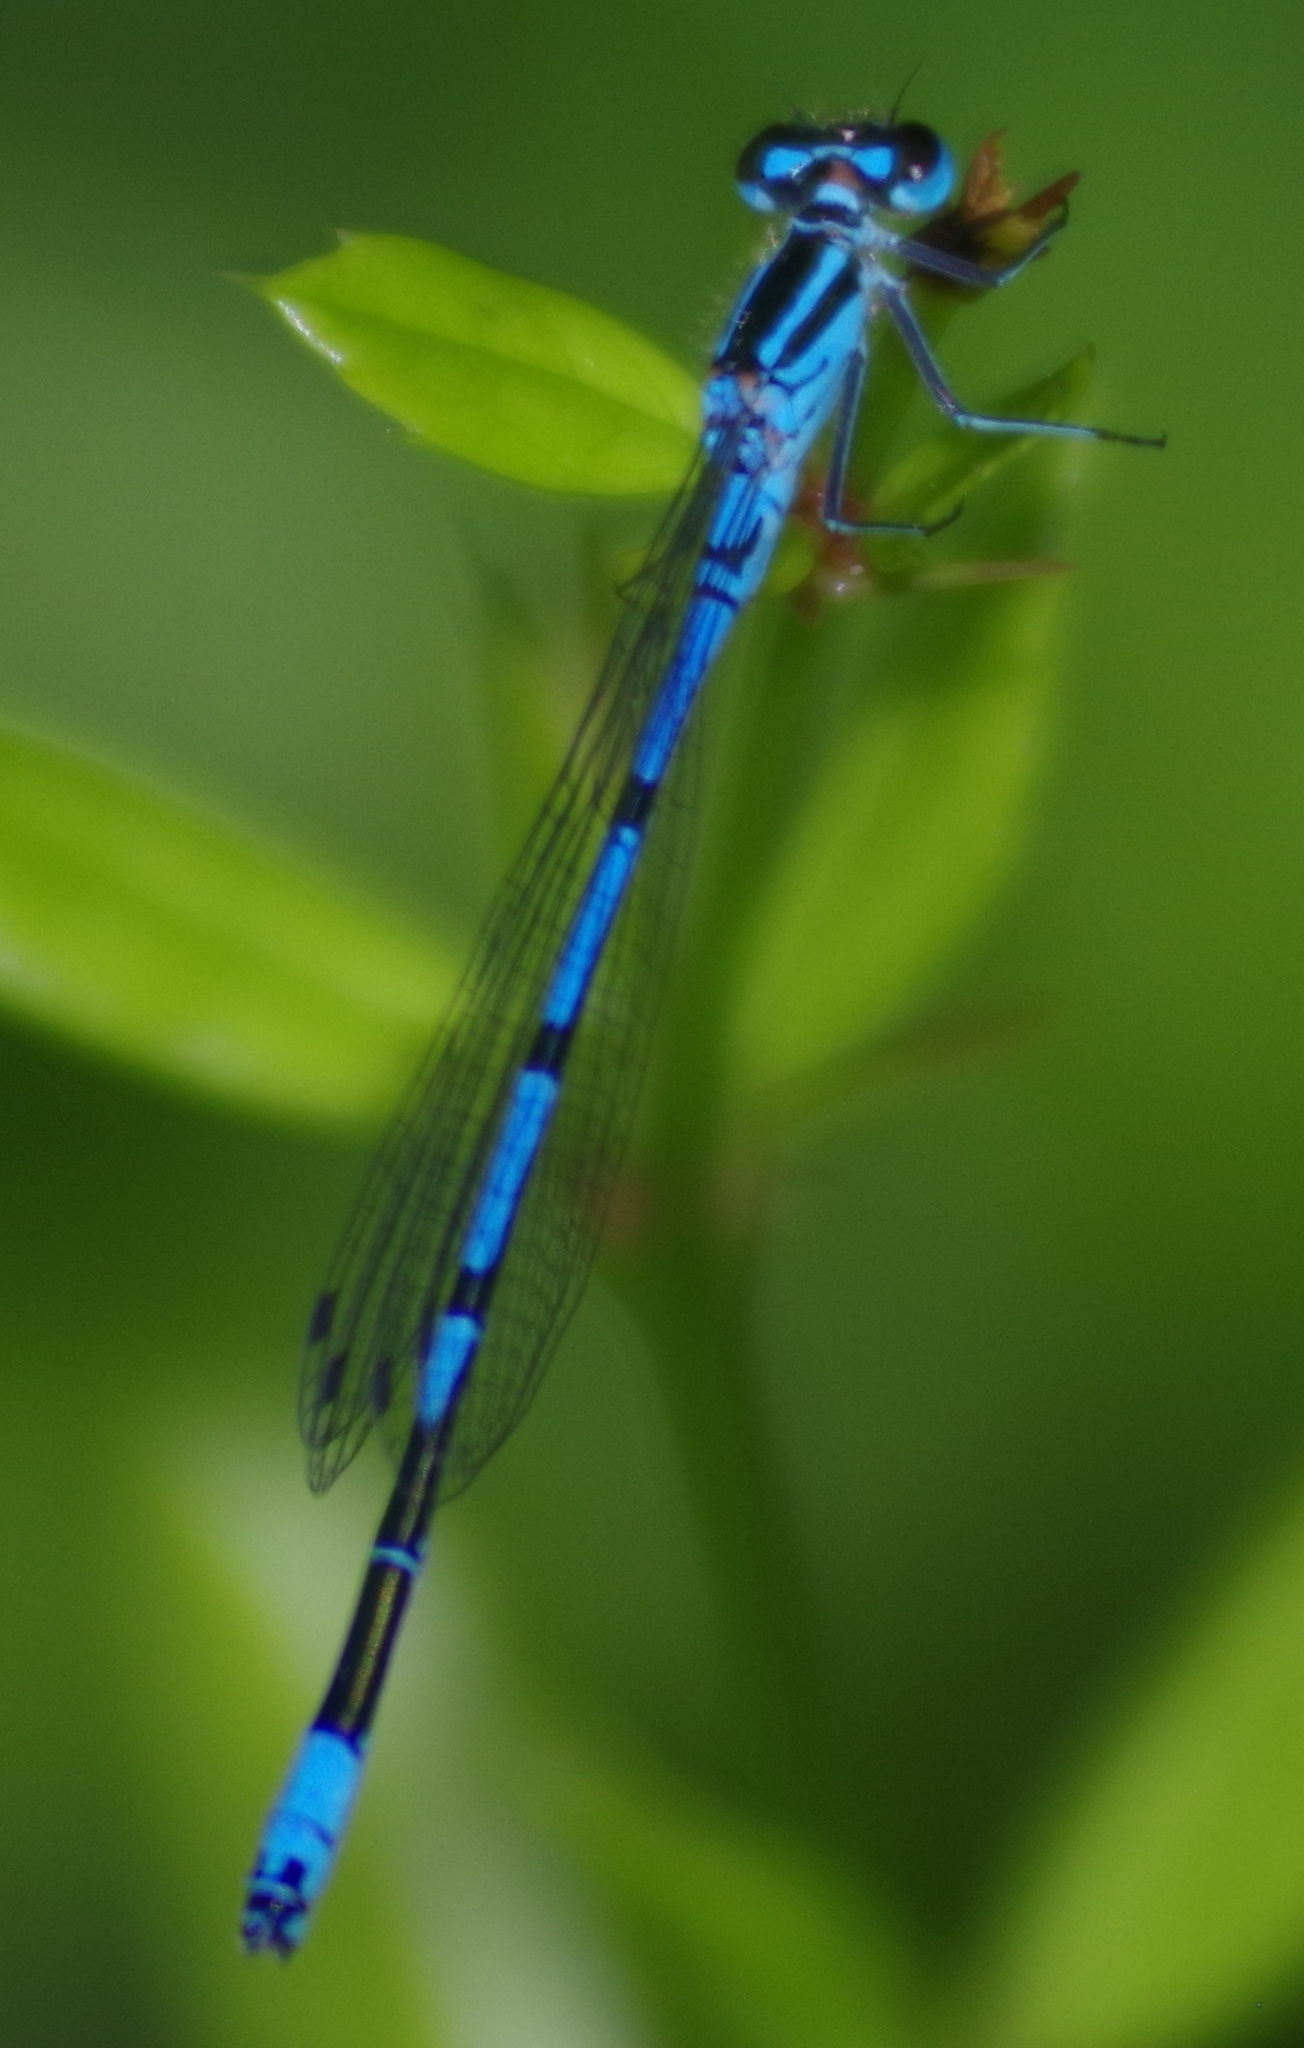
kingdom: Animalia
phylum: Arthropoda
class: Insecta
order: Odonata
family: Coenagrionidae
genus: Coenagrion
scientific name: Coenagrion puella
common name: Azure damselfly
